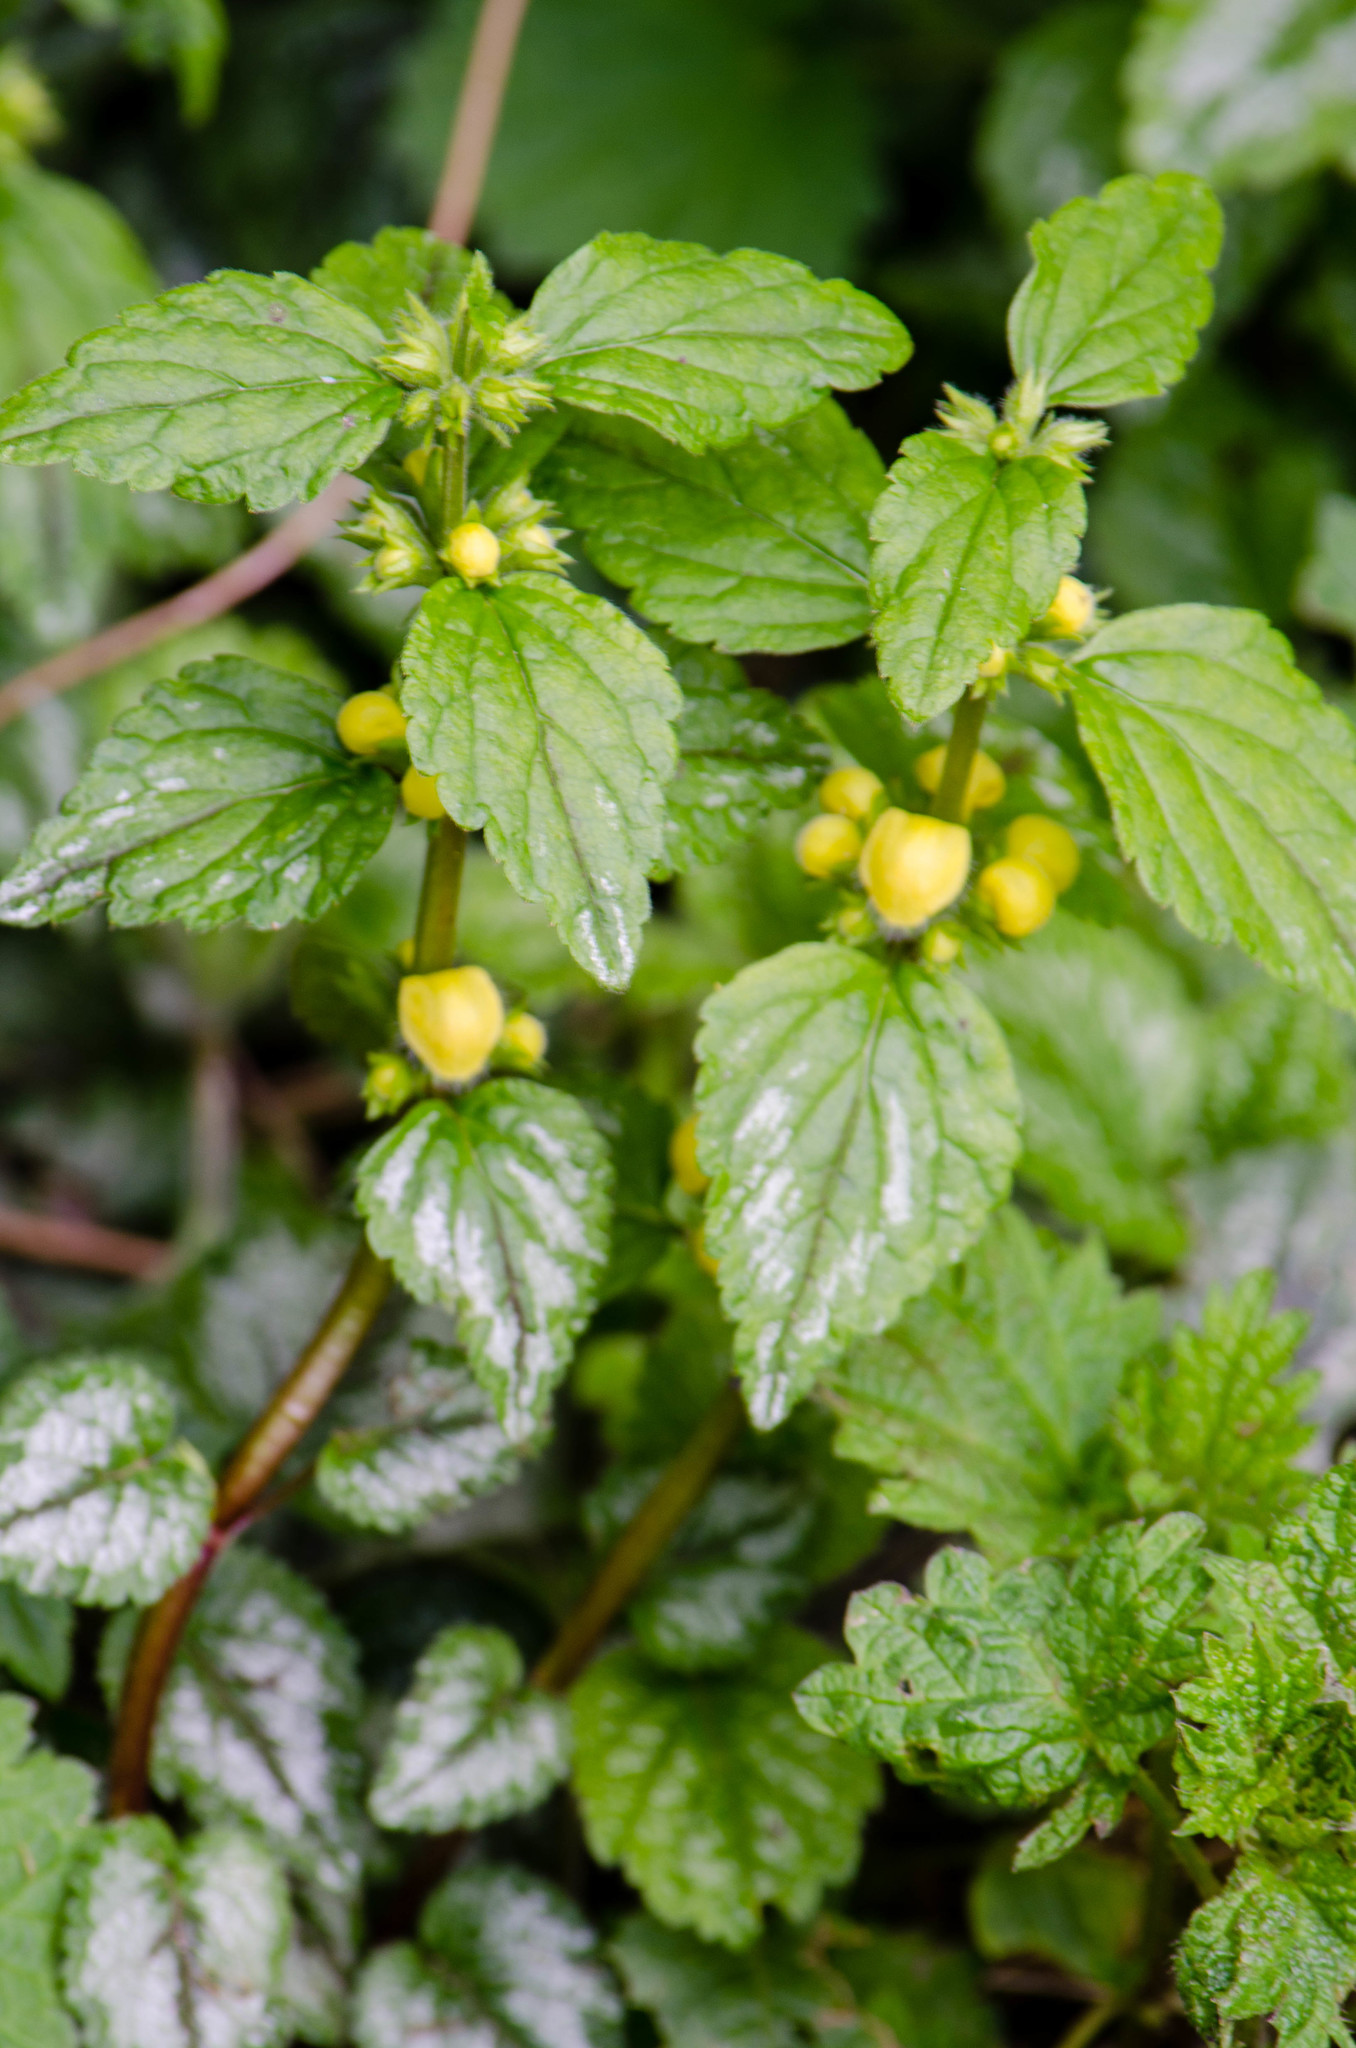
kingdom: Plantae
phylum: Tracheophyta
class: Magnoliopsida
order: Lamiales
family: Lamiaceae
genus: Lamium
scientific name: Lamium galeobdolon
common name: Yellow archangel
